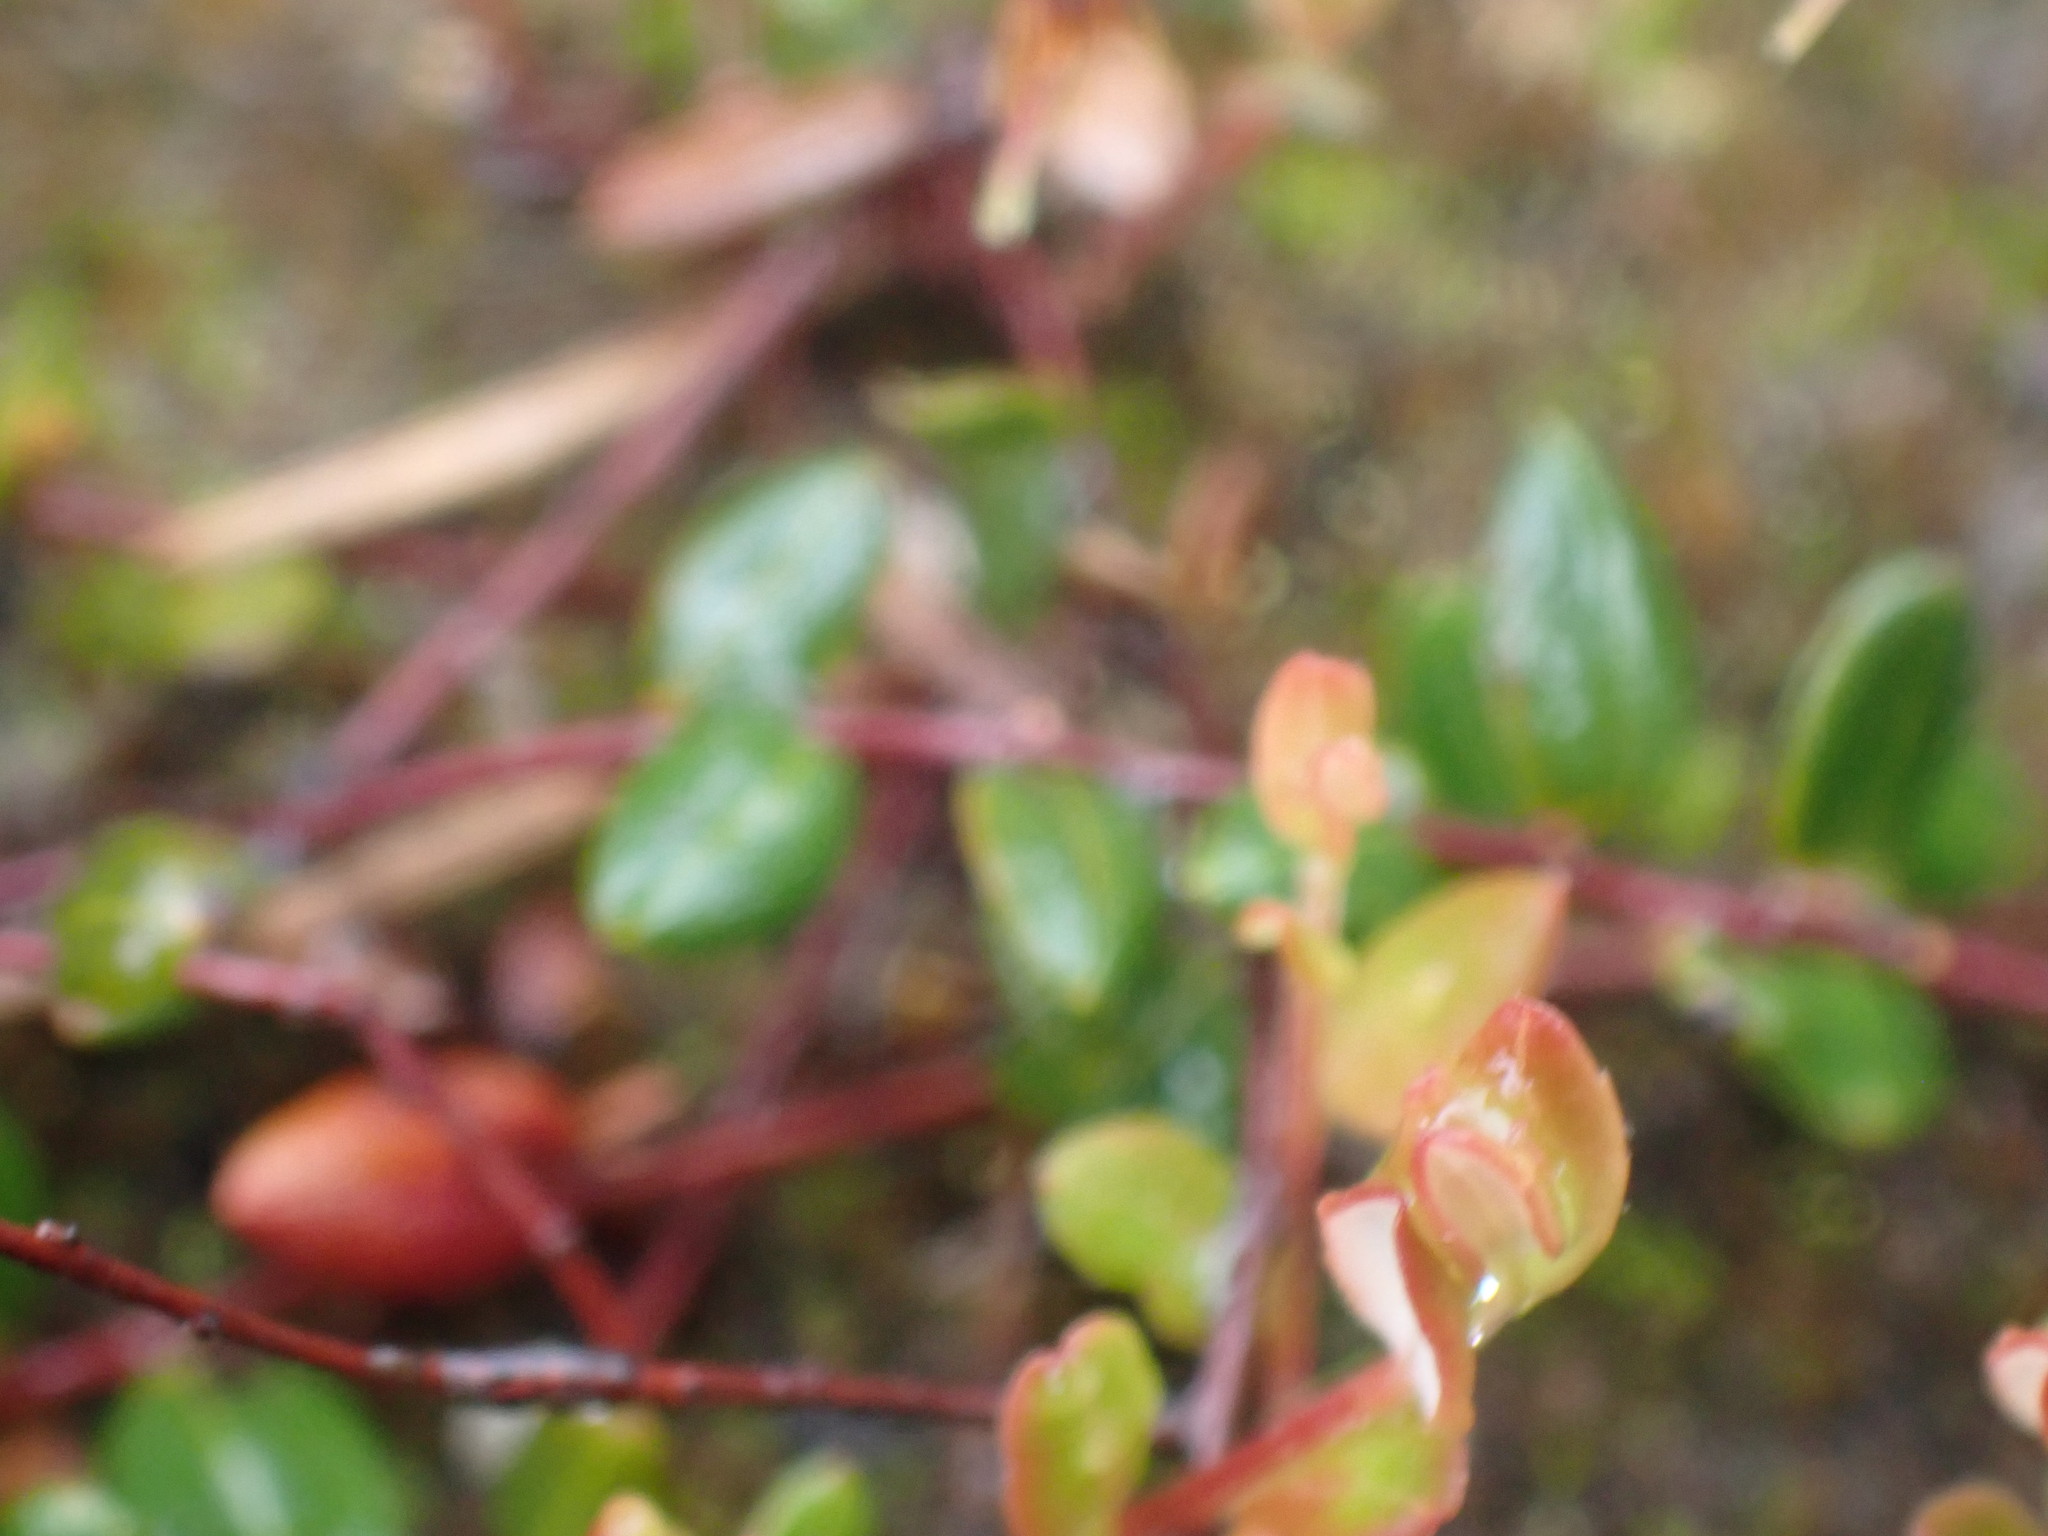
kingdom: Plantae
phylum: Tracheophyta
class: Magnoliopsida
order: Ericales
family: Ericaceae
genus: Vaccinium
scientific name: Vaccinium oxycoccos
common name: Cranberry
